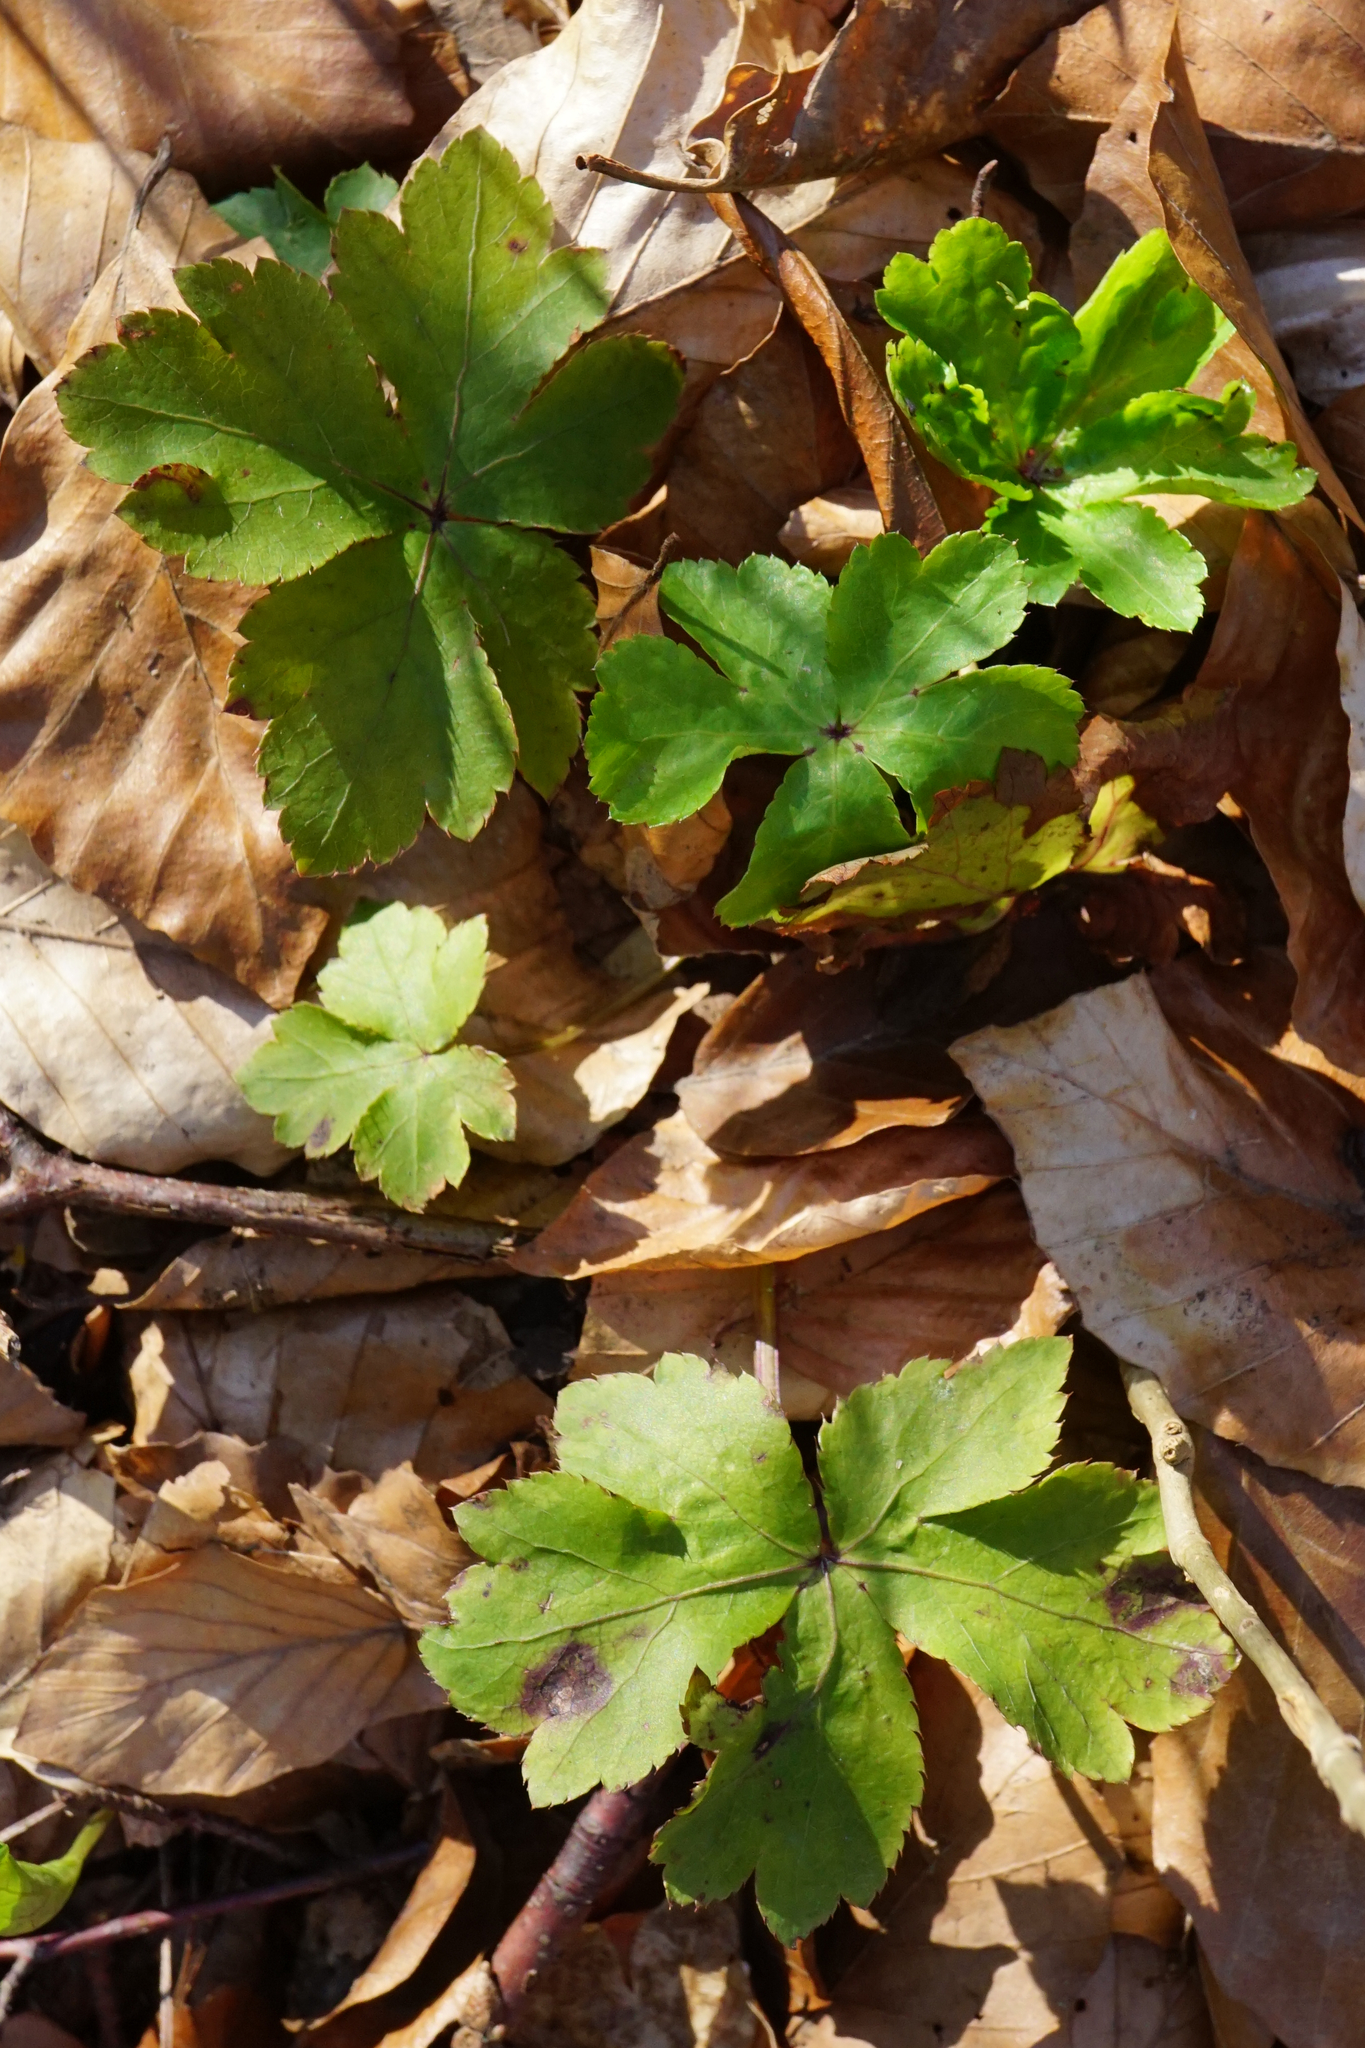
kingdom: Plantae
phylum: Tracheophyta
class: Magnoliopsida
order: Apiales
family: Apiaceae
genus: Sanicula
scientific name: Sanicula europaea
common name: Sanicle
